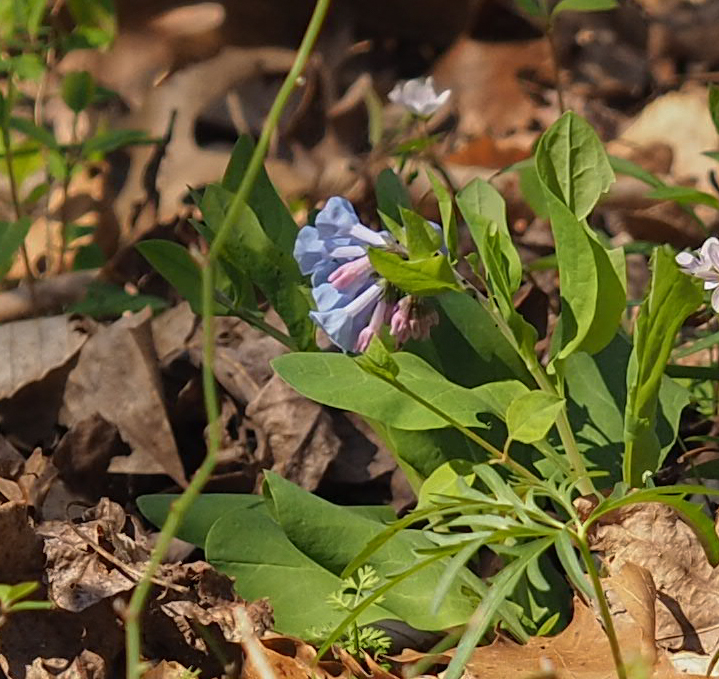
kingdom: Plantae
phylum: Tracheophyta
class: Magnoliopsida
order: Boraginales
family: Boraginaceae
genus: Mertensia
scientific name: Mertensia virginica
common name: Virginia bluebells
